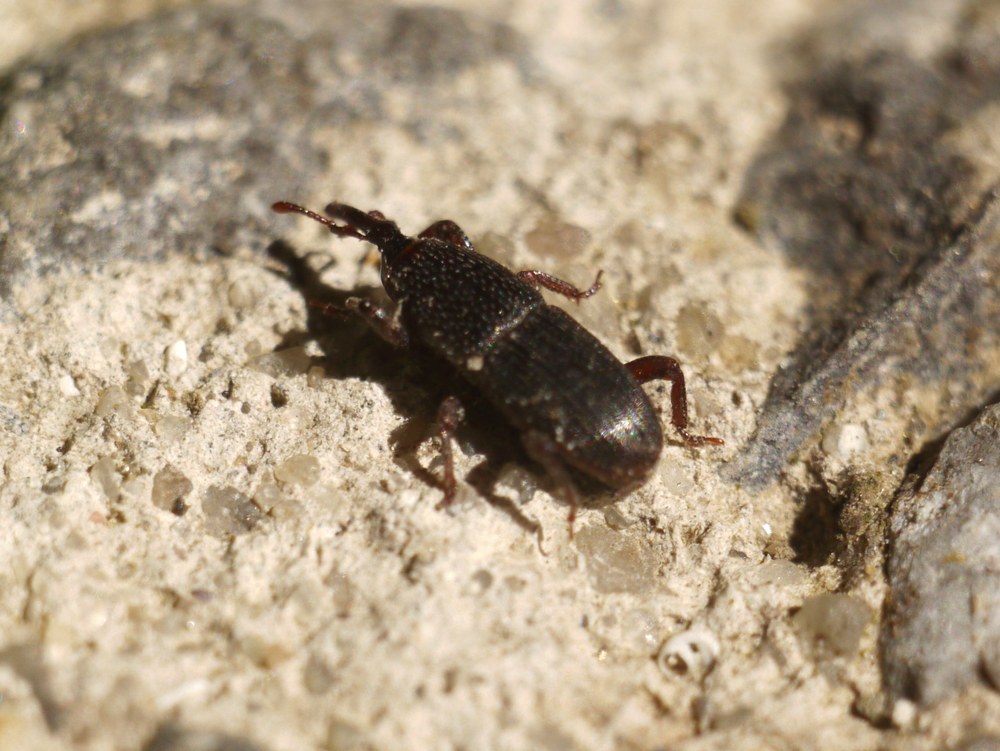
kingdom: Animalia
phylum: Arthropoda
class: Insecta
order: Coleoptera
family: Dryophthoridae
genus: Sitophilus
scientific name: Sitophilus granarius
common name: Granary weevil
